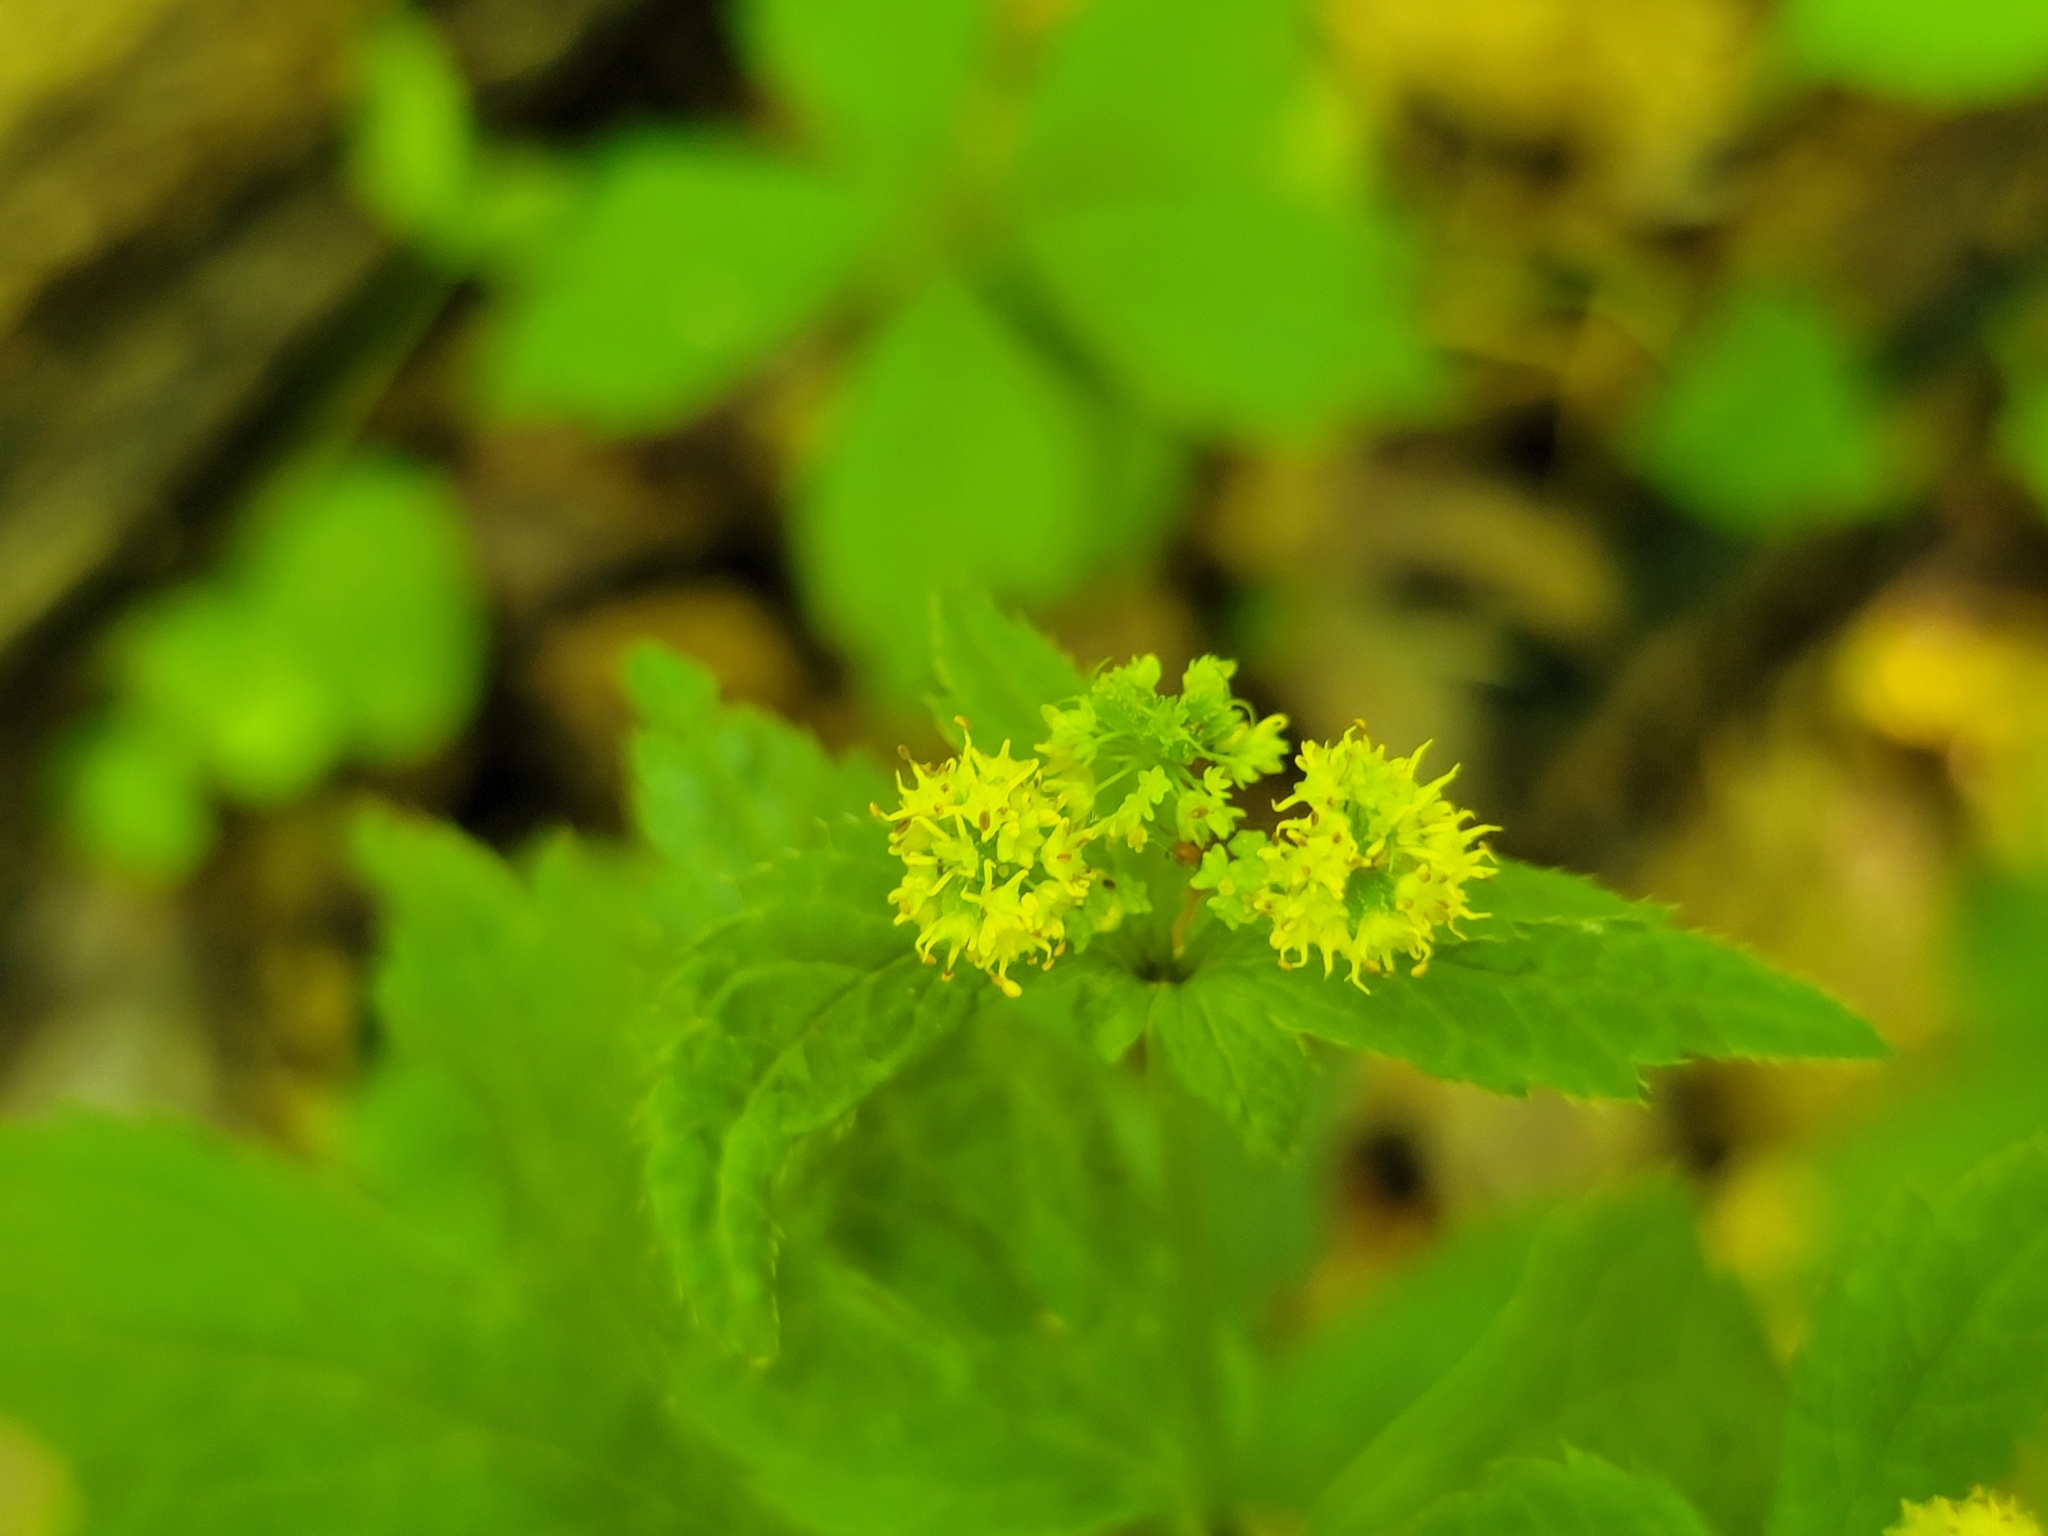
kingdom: Plantae
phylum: Tracheophyta
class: Magnoliopsida
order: Apiales
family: Apiaceae
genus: Sanicula
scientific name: Sanicula odorata
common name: Cluster sanicle
